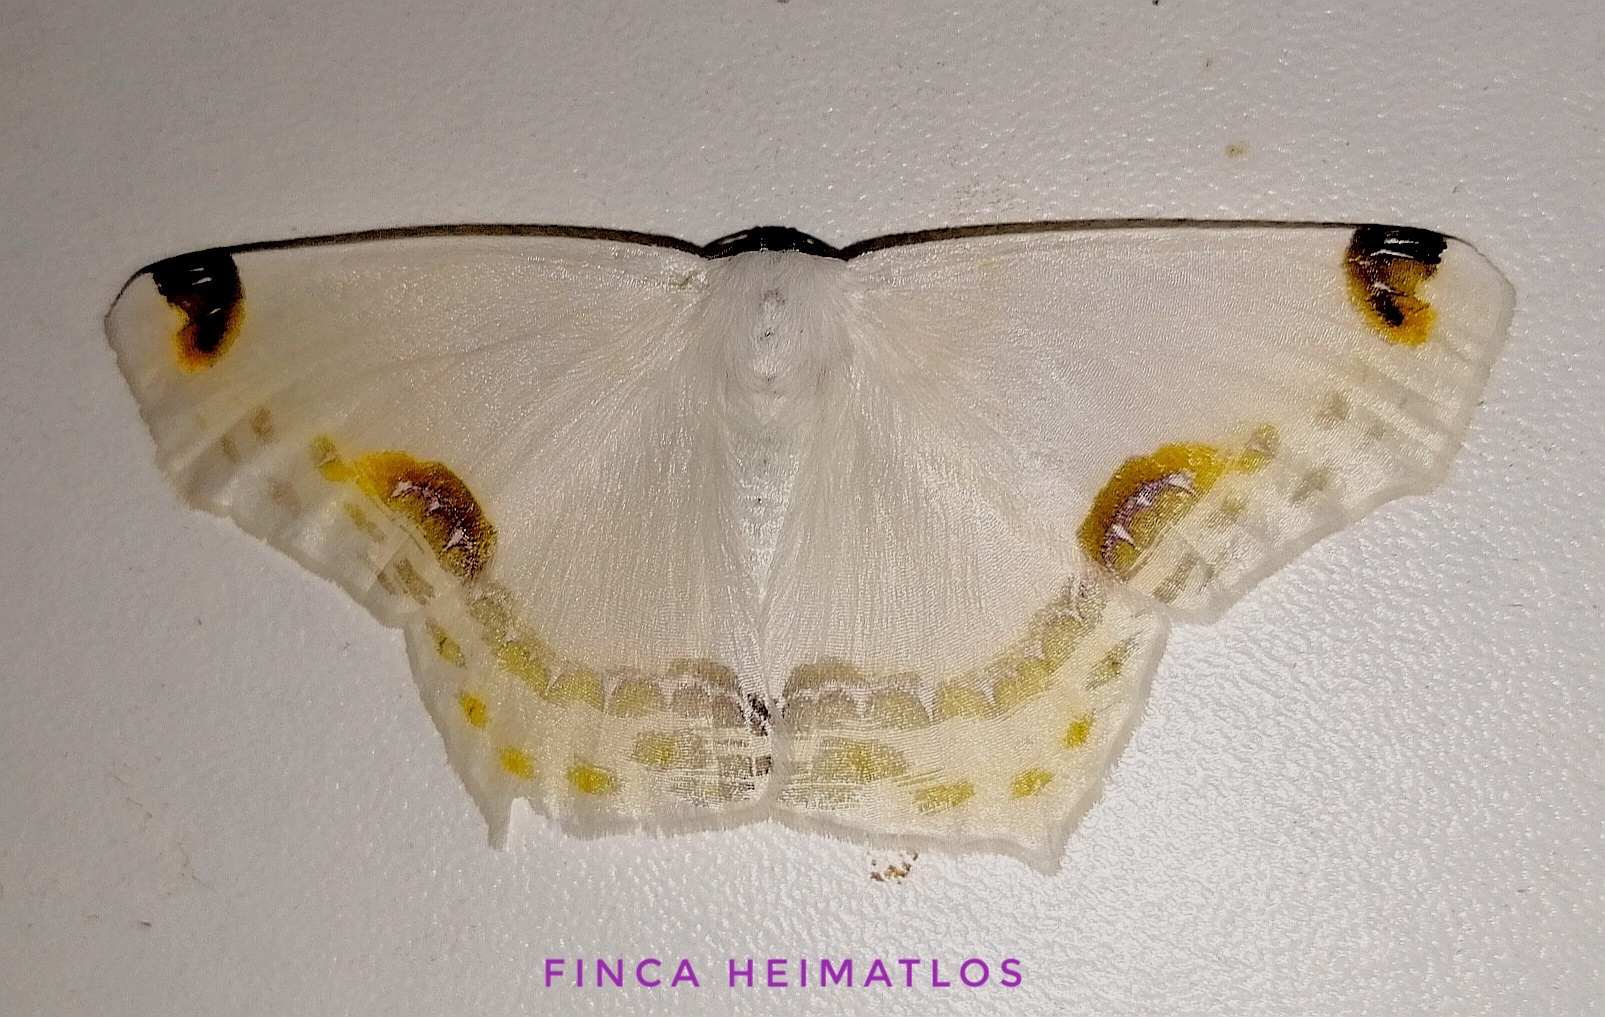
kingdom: Animalia
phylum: Arthropoda
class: Insecta
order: Lepidoptera
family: Geometridae
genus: Sericoptera
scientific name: Sericoptera chiffa
